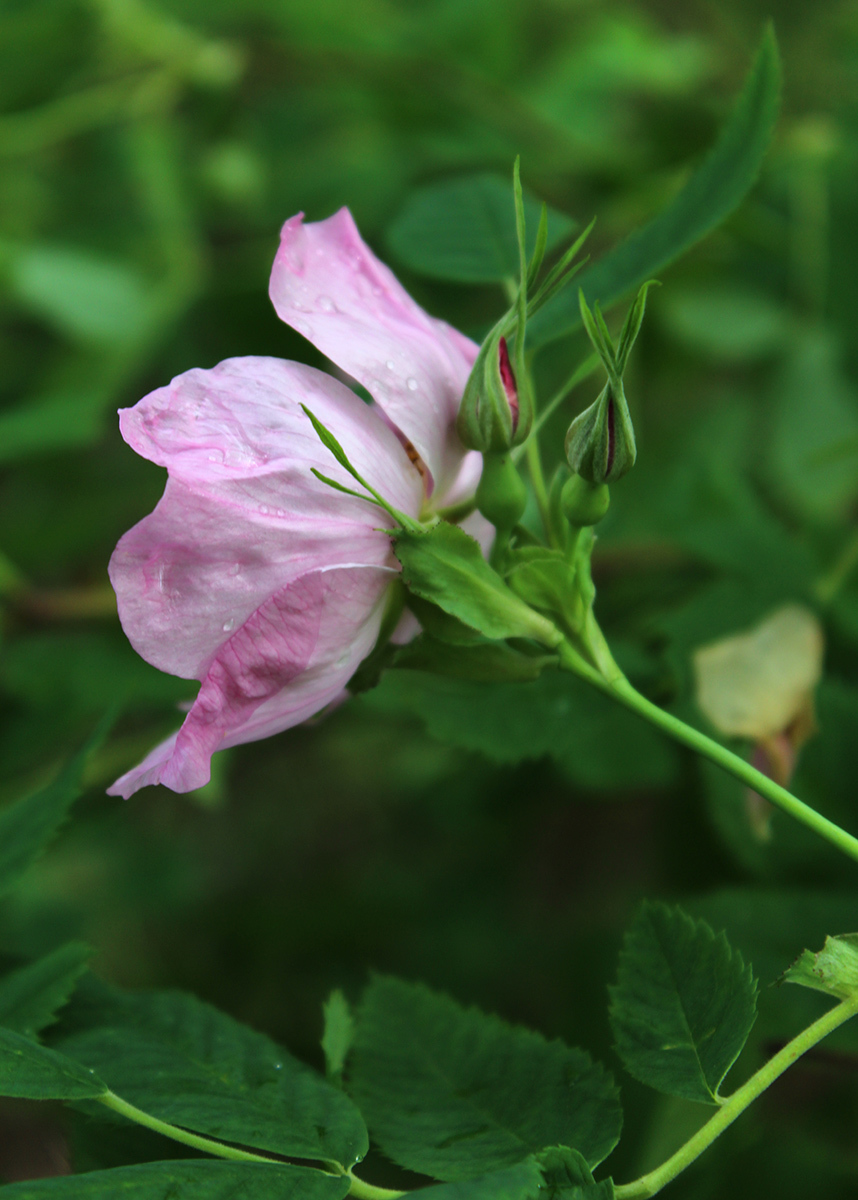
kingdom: Plantae
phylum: Tracheophyta
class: Magnoliopsida
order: Rosales
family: Rosaceae
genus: Rosa
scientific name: Rosa majalis
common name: Cinnamon rose
